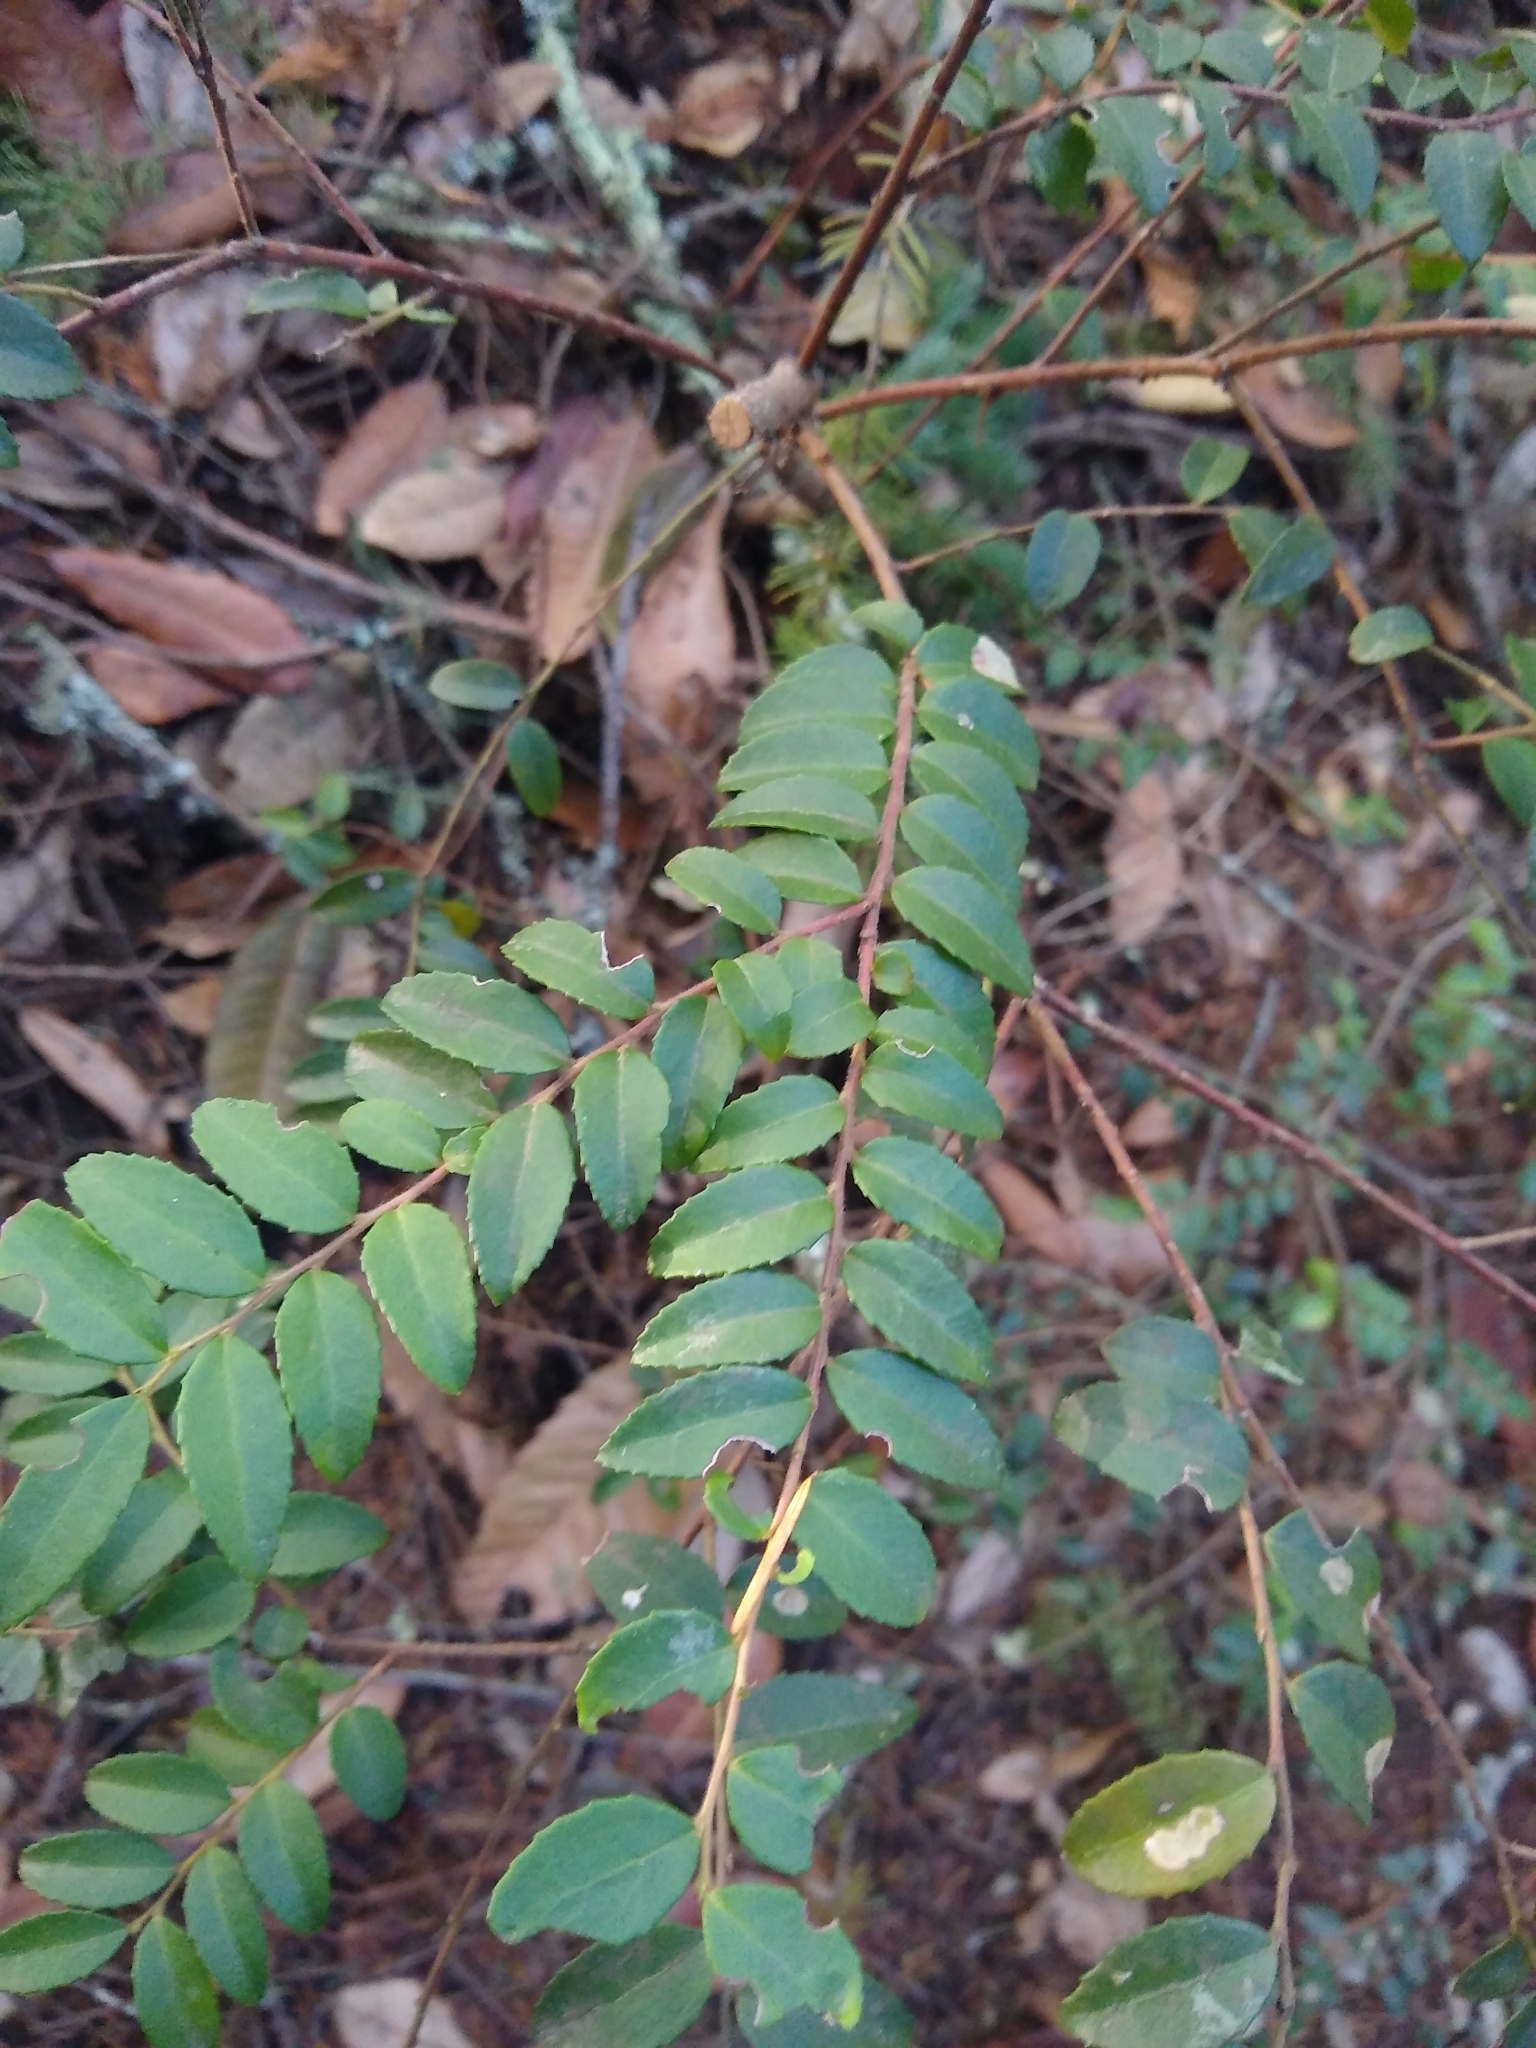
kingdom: Plantae
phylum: Tracheophyta
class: Magnoliopsida
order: Ericales
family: Ericaceae
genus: Vaccinium
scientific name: Vaccinium ovatum
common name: California-huckleberry
